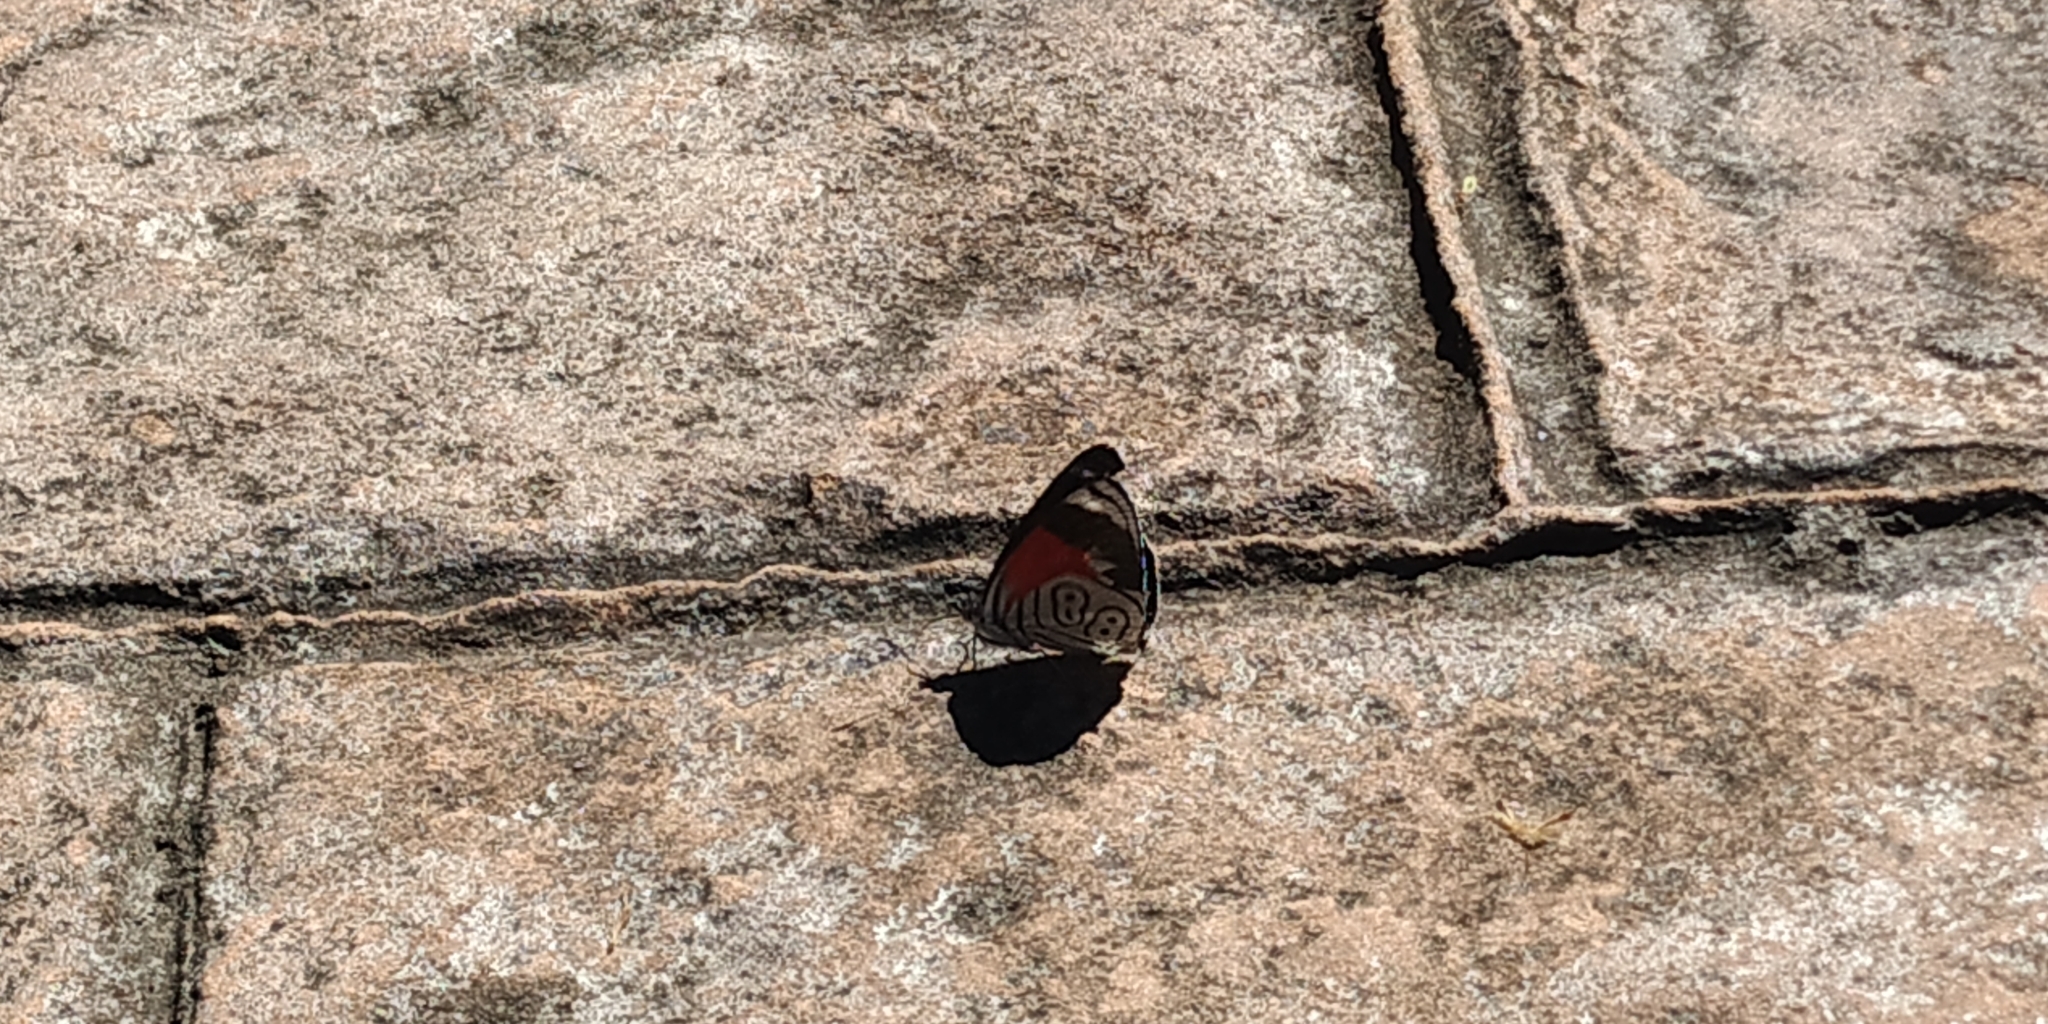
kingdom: Animalia
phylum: Arthropoda
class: Insecta
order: Lepidoptera
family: Nymphalidae
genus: Diaethria
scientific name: Diaethria anna
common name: Anna’s eighty-eight
